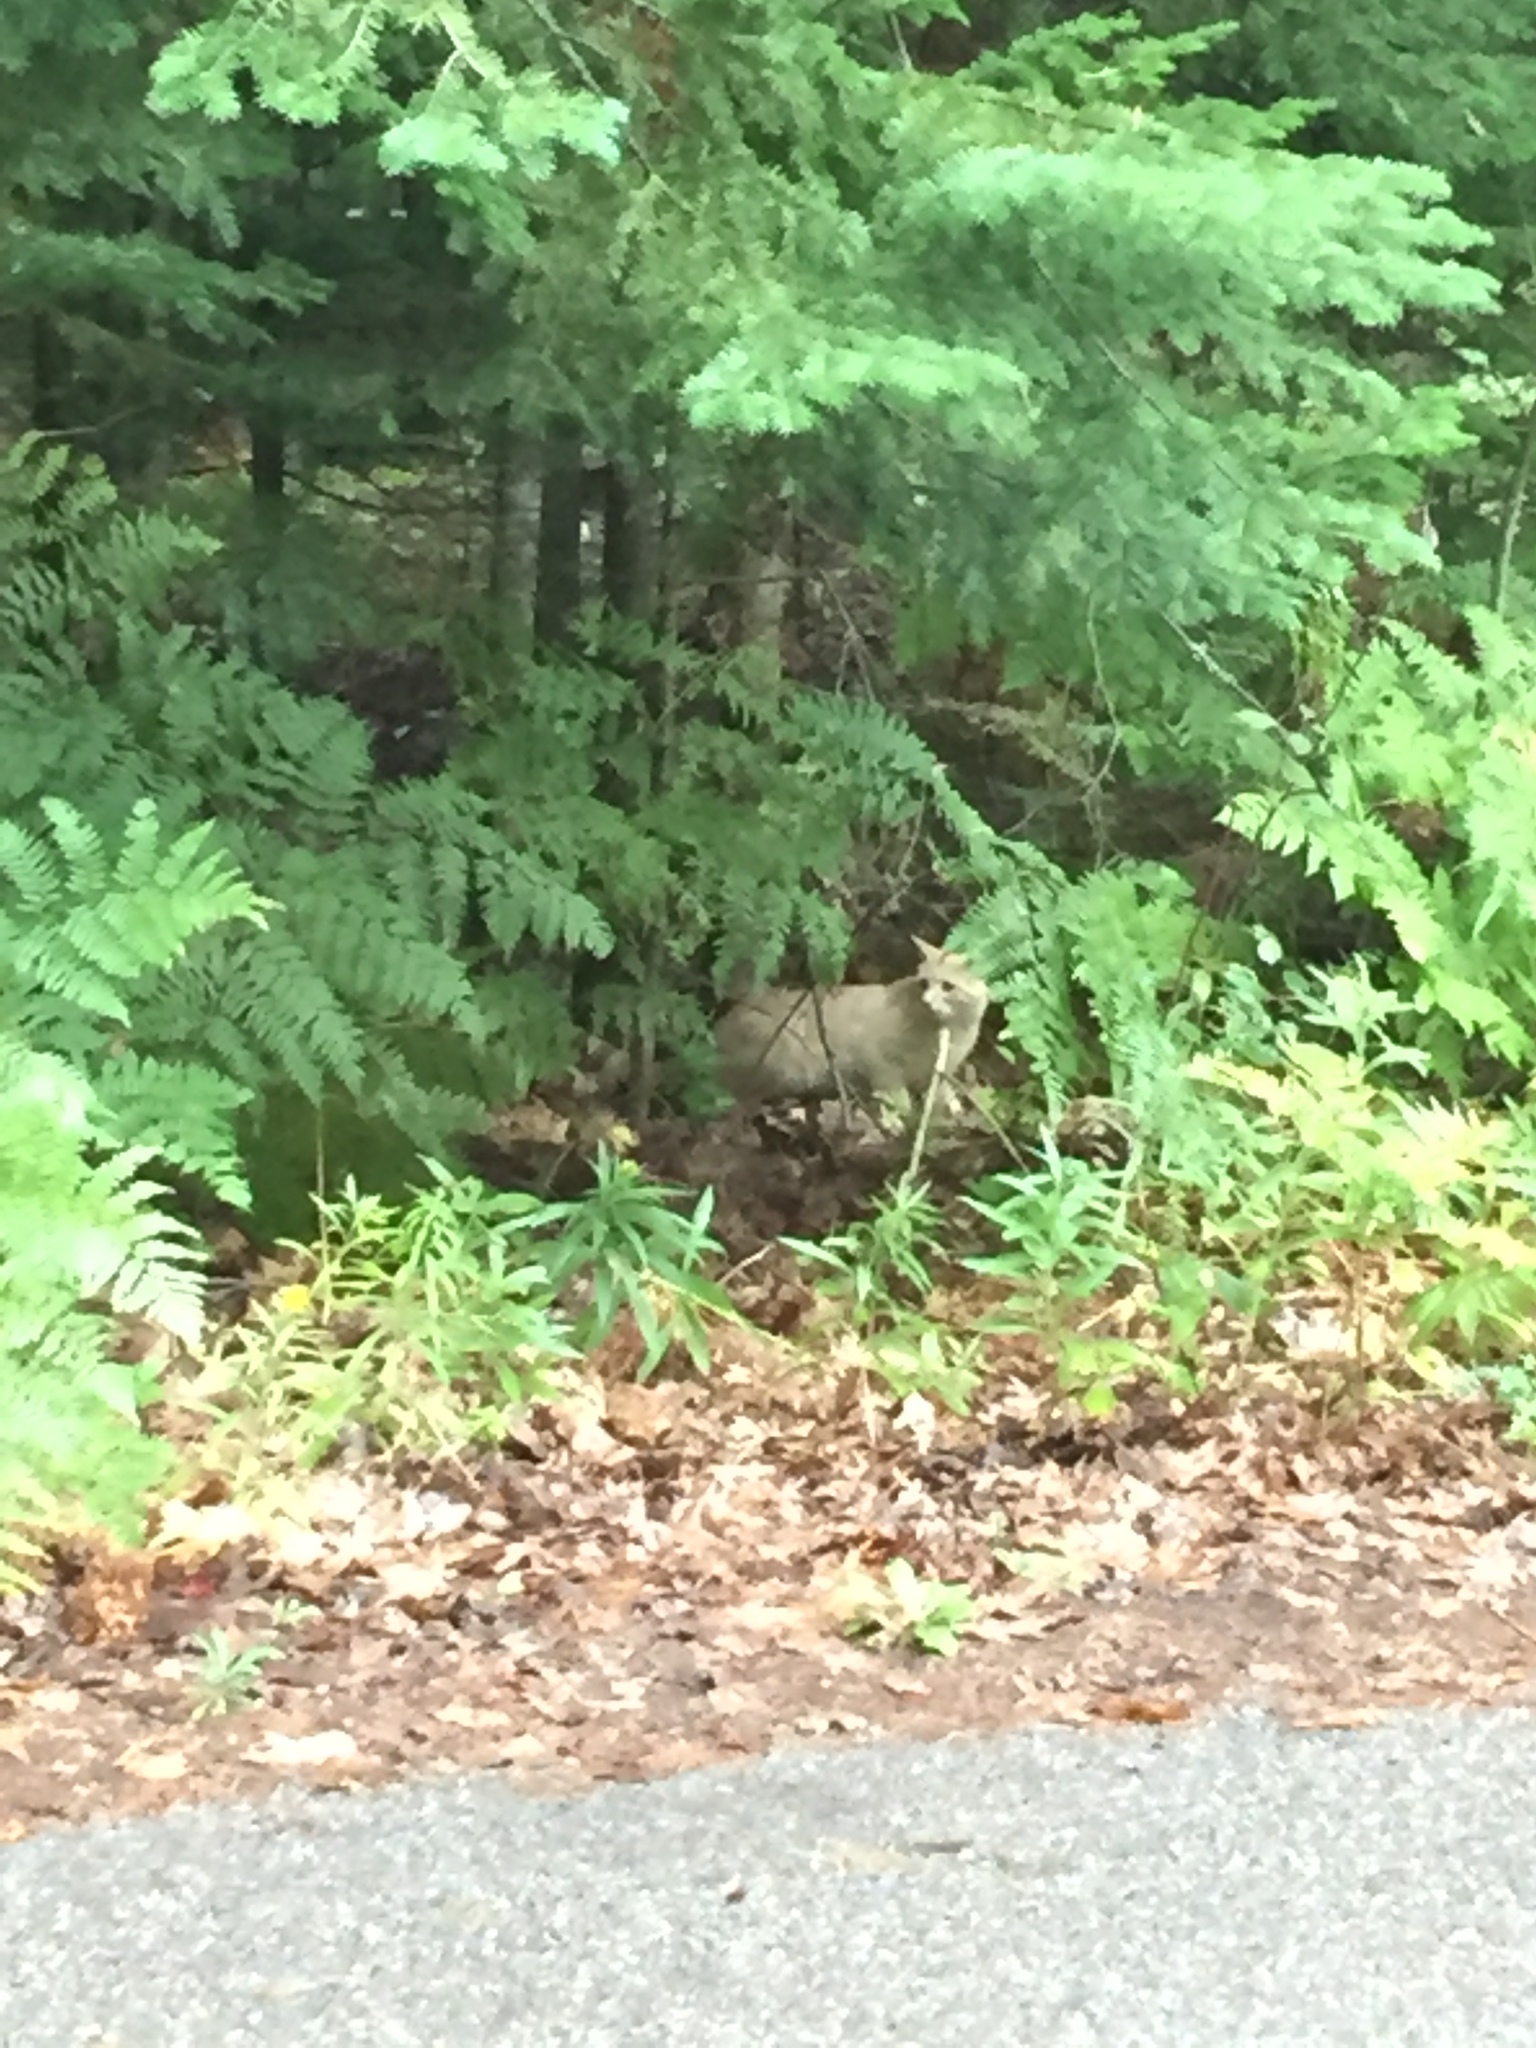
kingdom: Animalia
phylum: Chordata
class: Mammalia
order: Carnivora
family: Felidae
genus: Felis
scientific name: Felis catus
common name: Domestic cat
